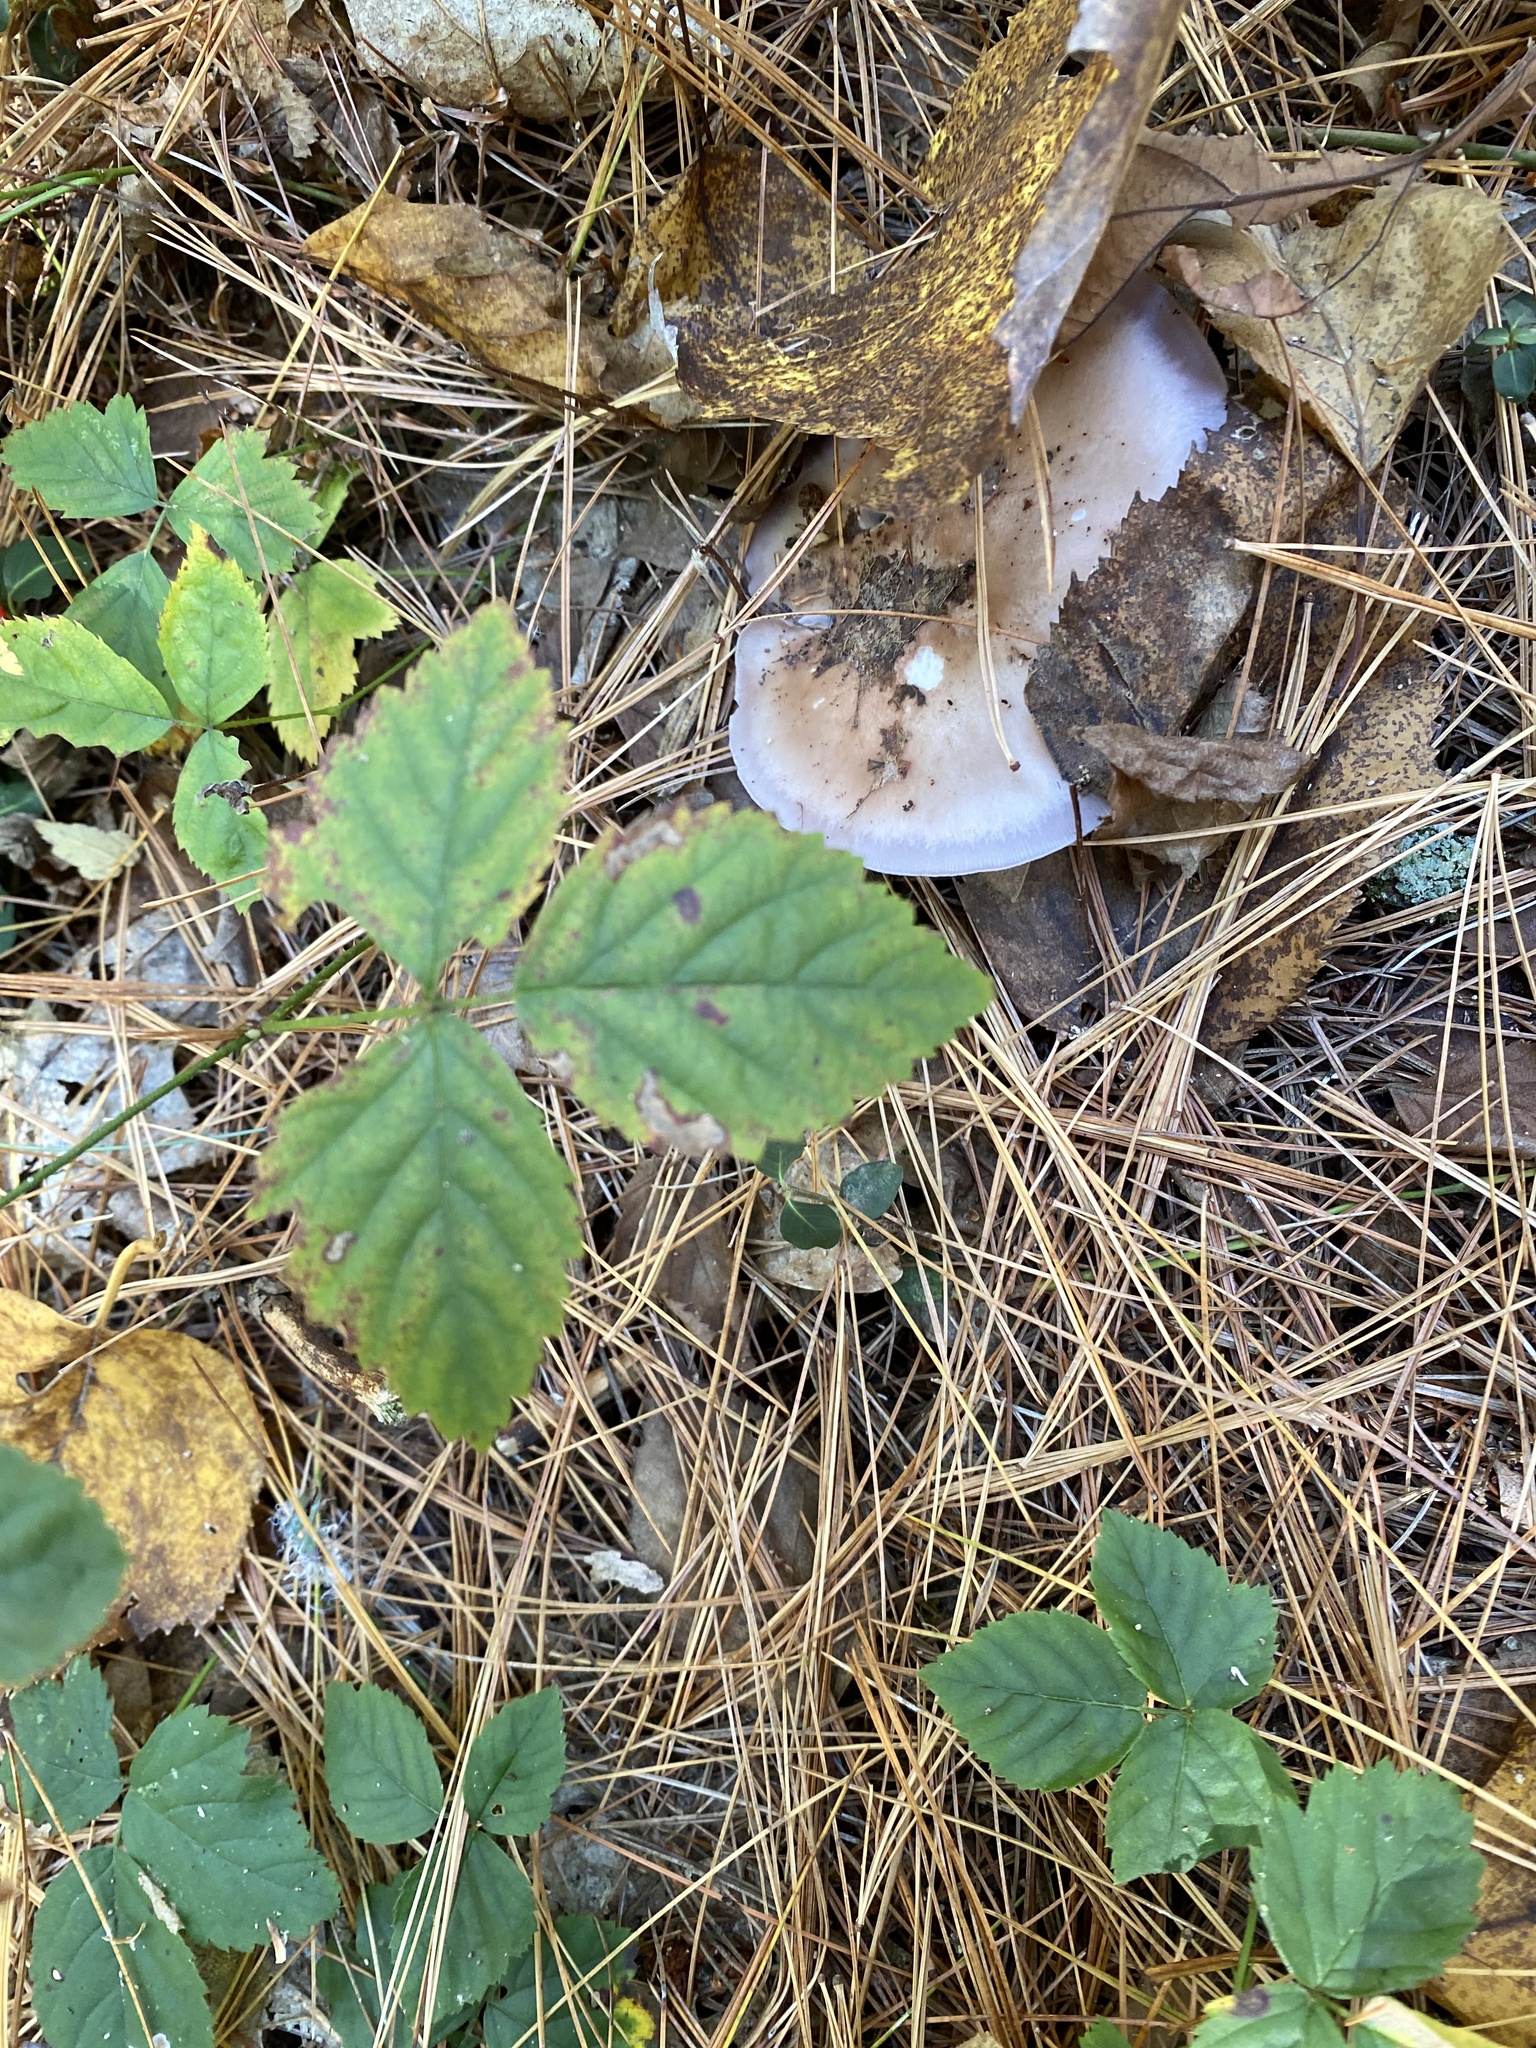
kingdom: Plantae
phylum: Tracheophyta
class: Magnoliopsida
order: Rosales
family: Rosaceae
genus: Rubus
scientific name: Rubus hispidus
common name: Running blackberry
